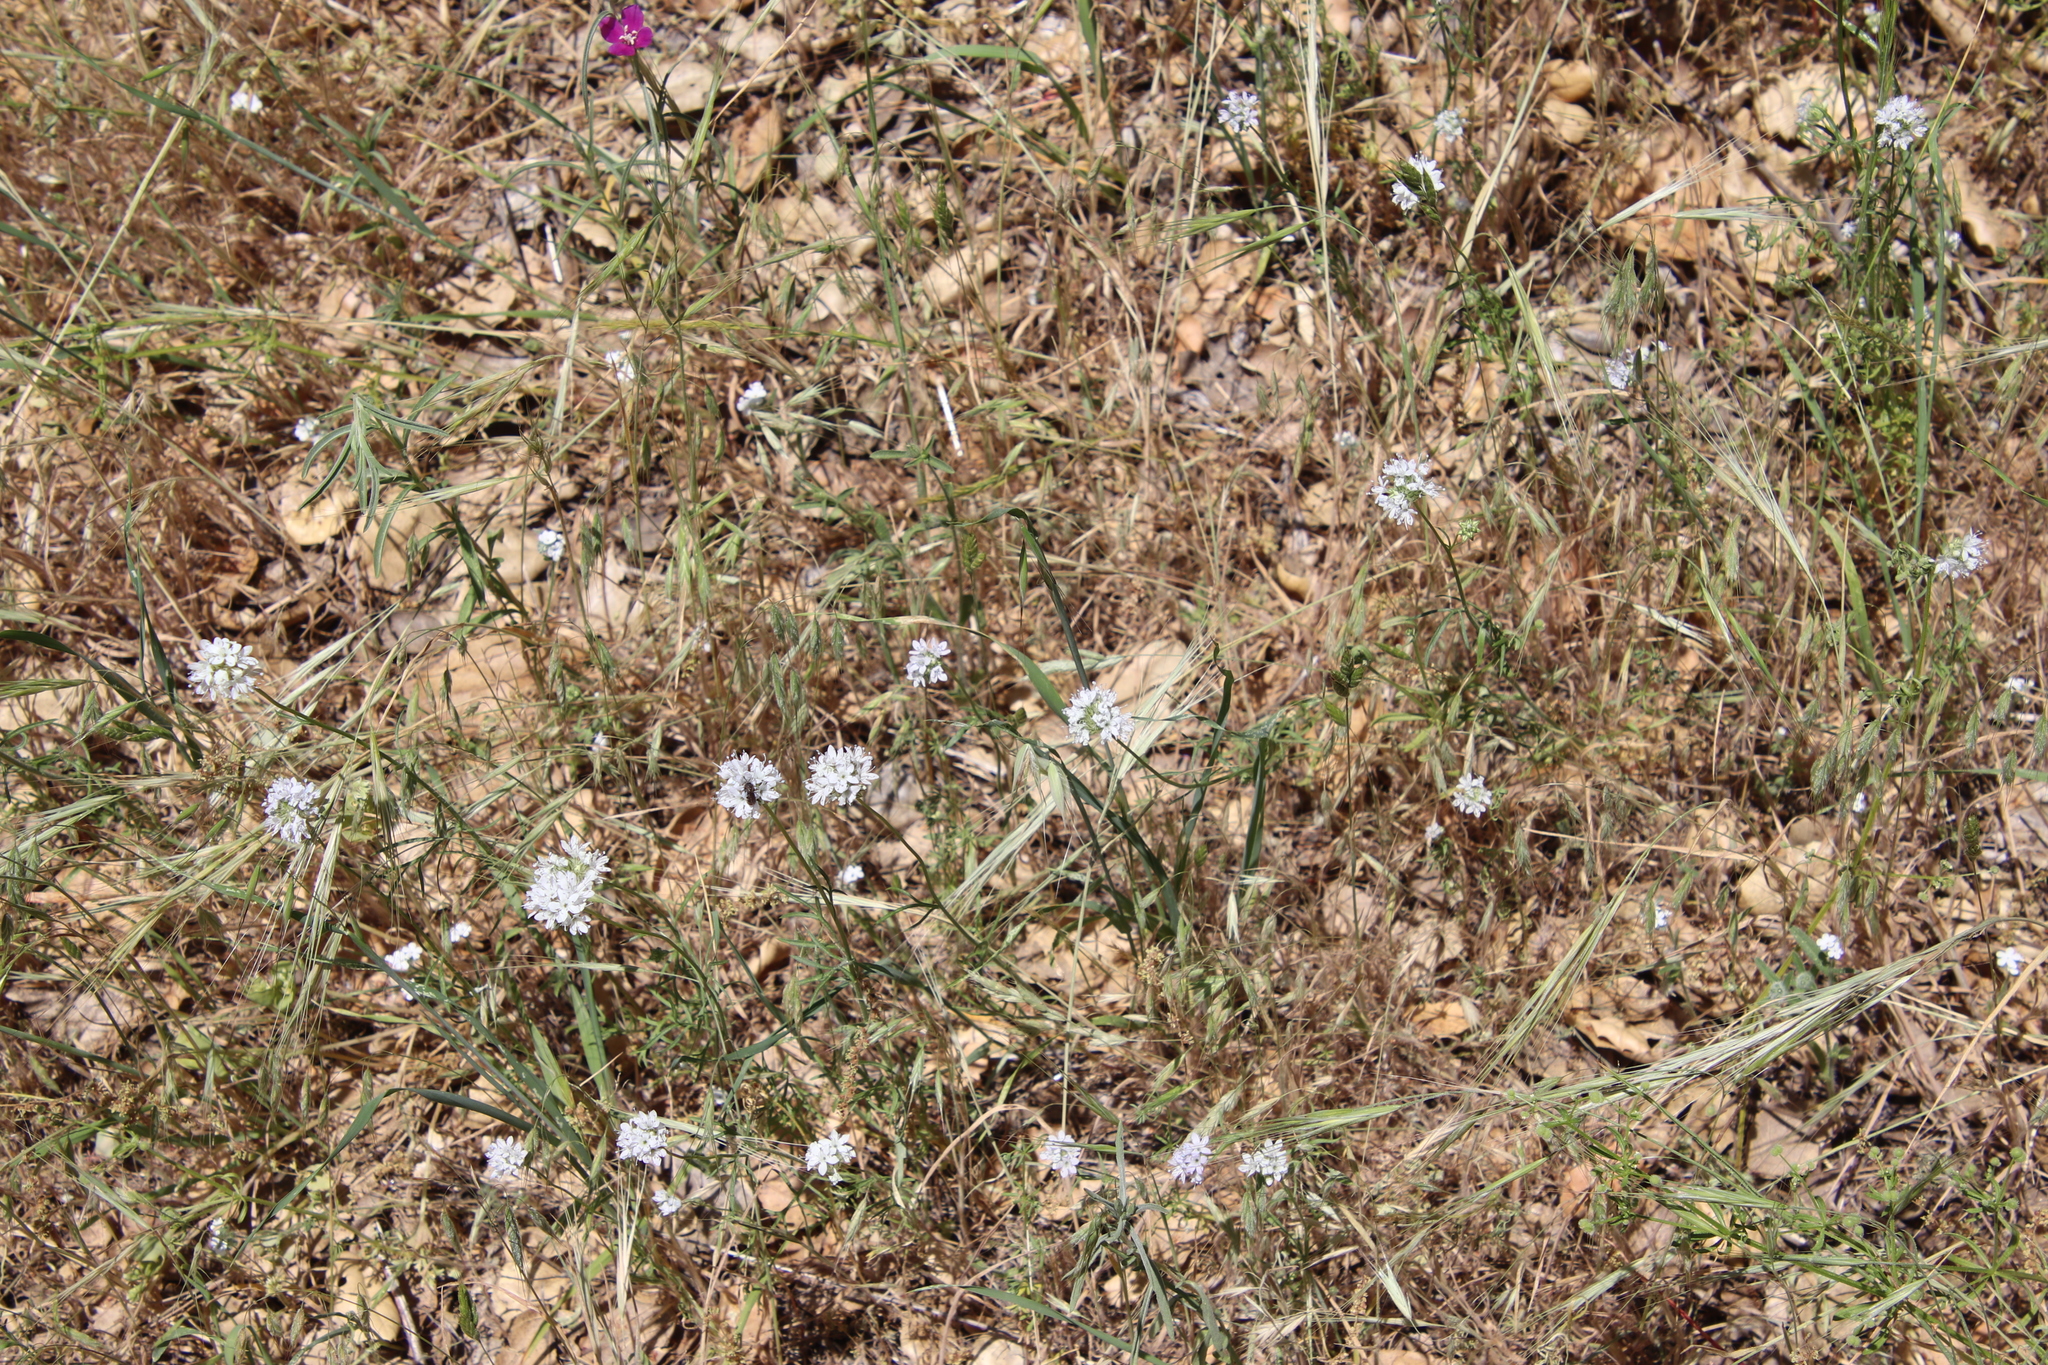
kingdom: Plantae
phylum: Tracheophyta
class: Magnoliopsida
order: Ericales
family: Polemoniaceae
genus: Gilia
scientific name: Gilia capitata
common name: Bluehead gilia
